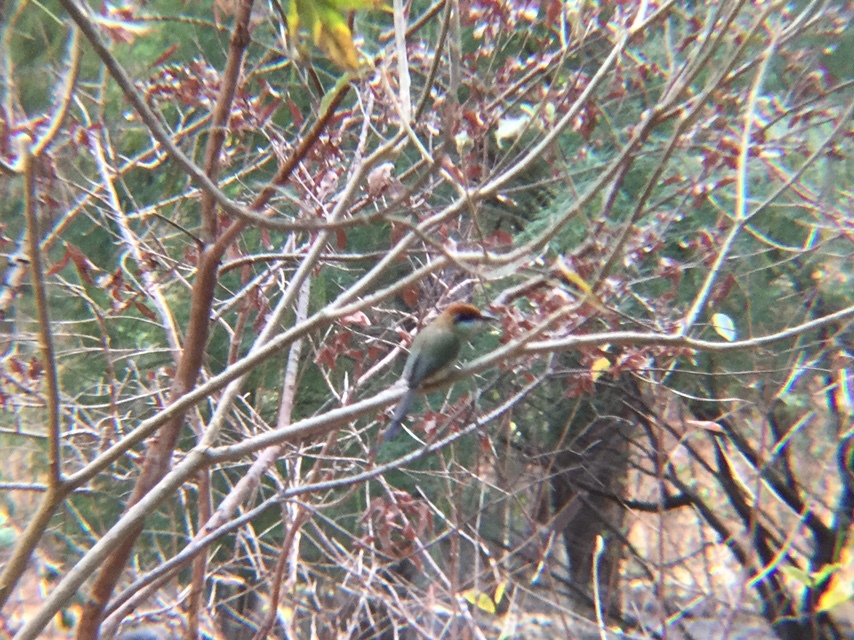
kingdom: Animalia
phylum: Chordata
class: Aves
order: Coraciiformes
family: Momotidae
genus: Momotus
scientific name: Momotus mexicanus
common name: Russet-crowned motmot
